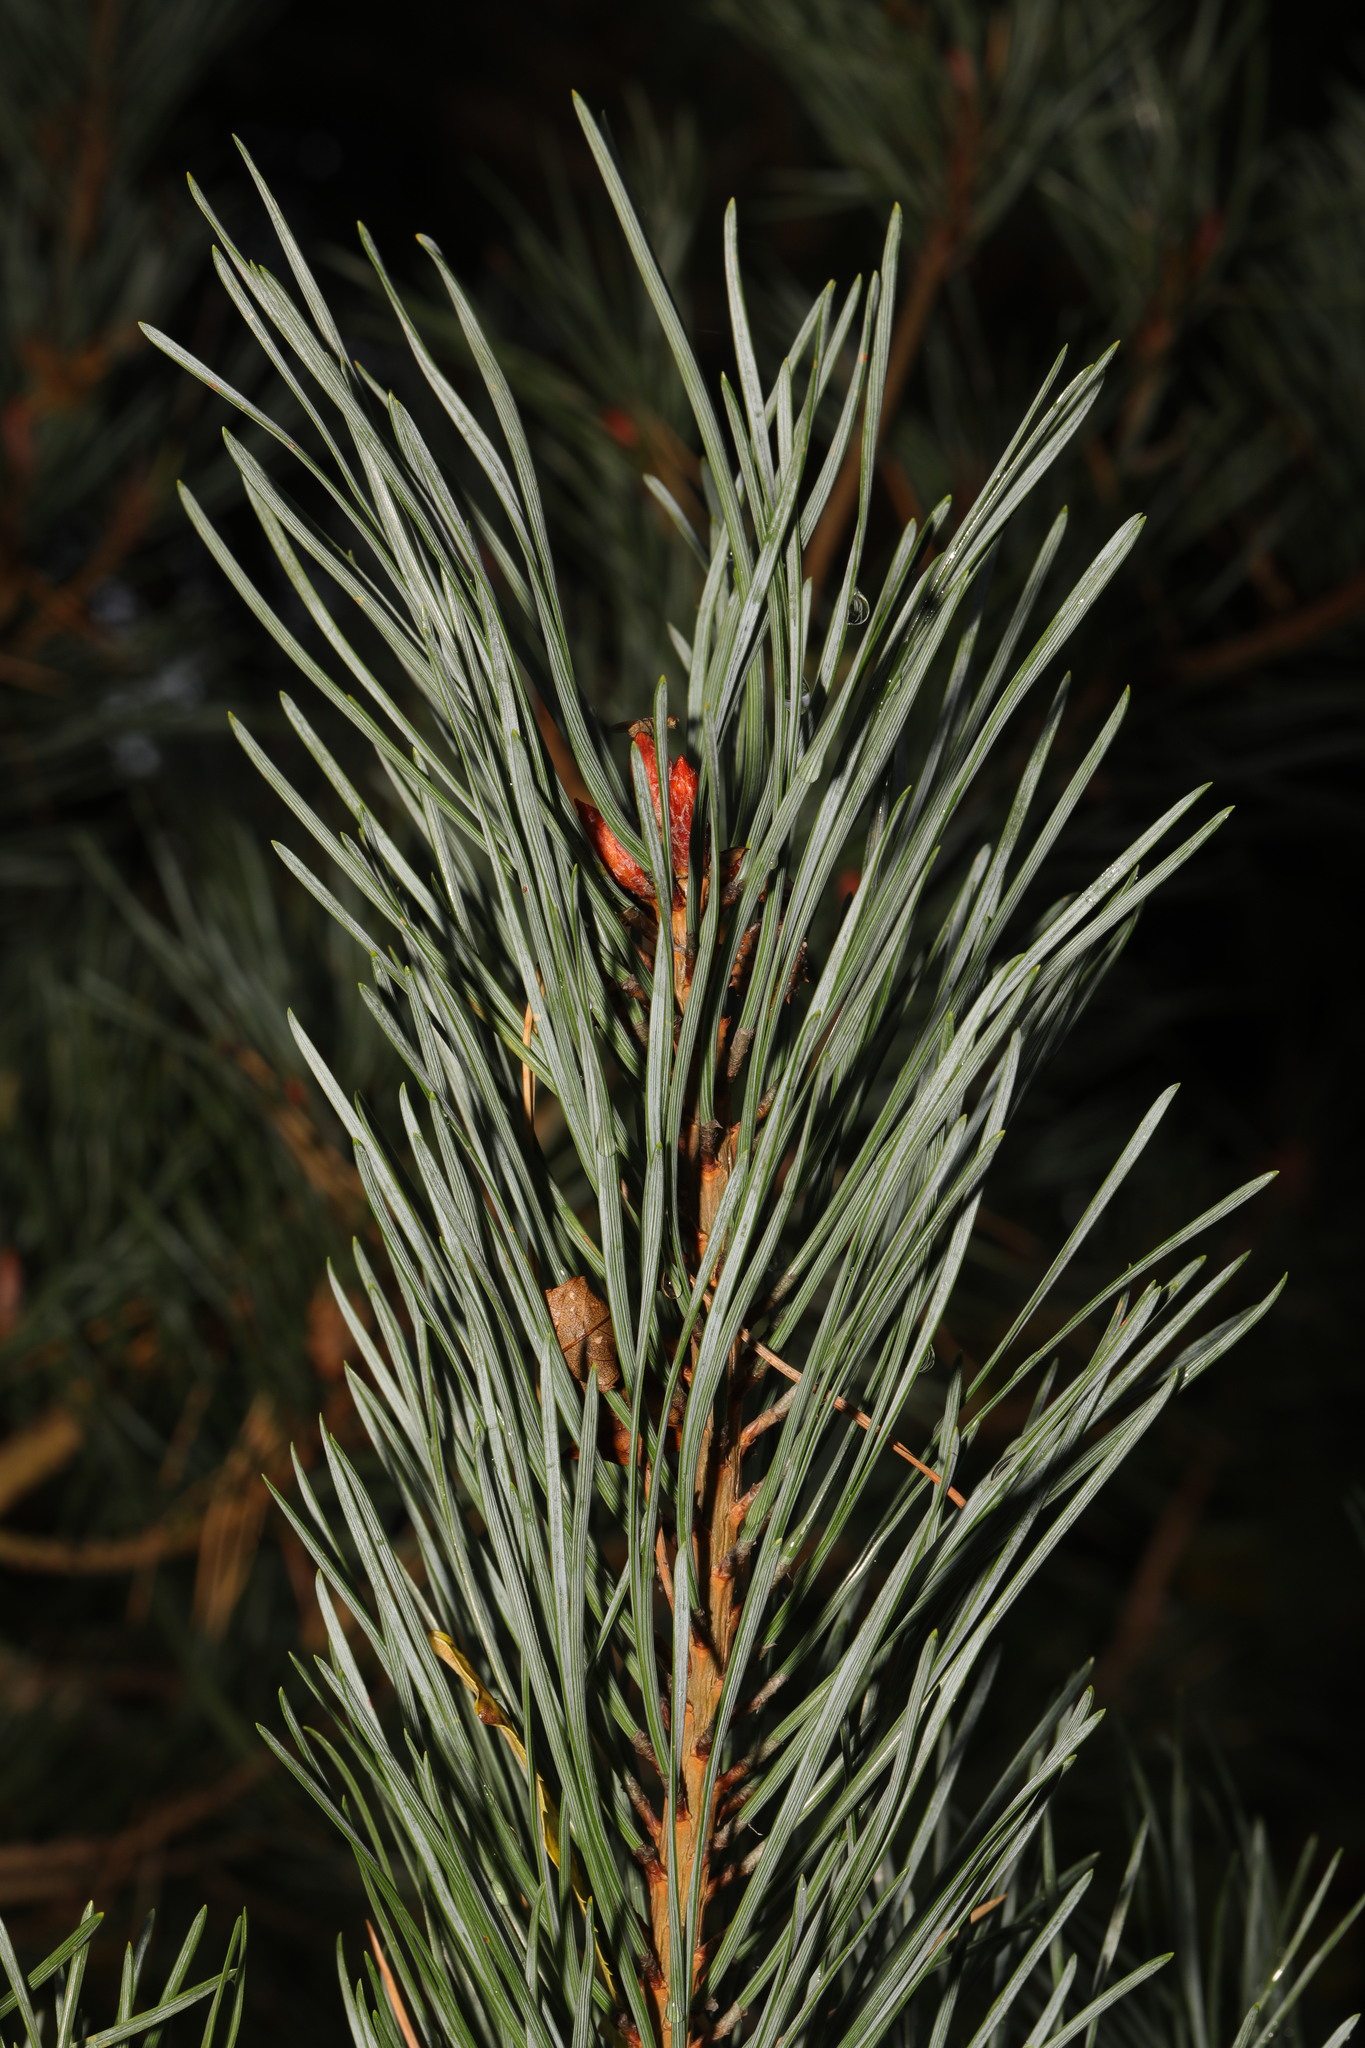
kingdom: Plantae
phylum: Tracheophyta
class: Pinopsida
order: Pinales
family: Pinaceae
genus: Pinus
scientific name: Pinus sylvestris
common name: Scots pine
